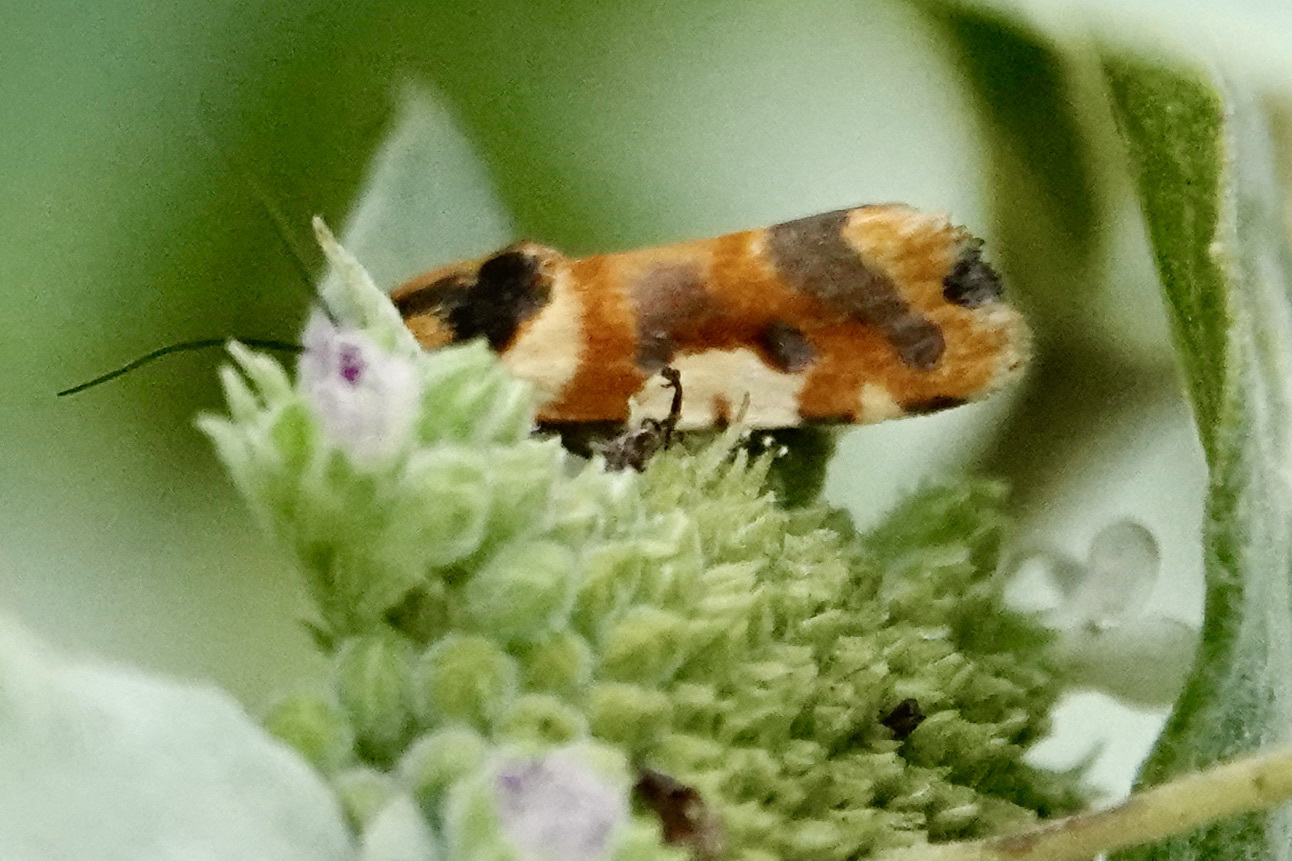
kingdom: Animalia
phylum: Arthropoda
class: Insecta
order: Lepidoptera
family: Noctuidae
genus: Acontia
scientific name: Acontia leo
